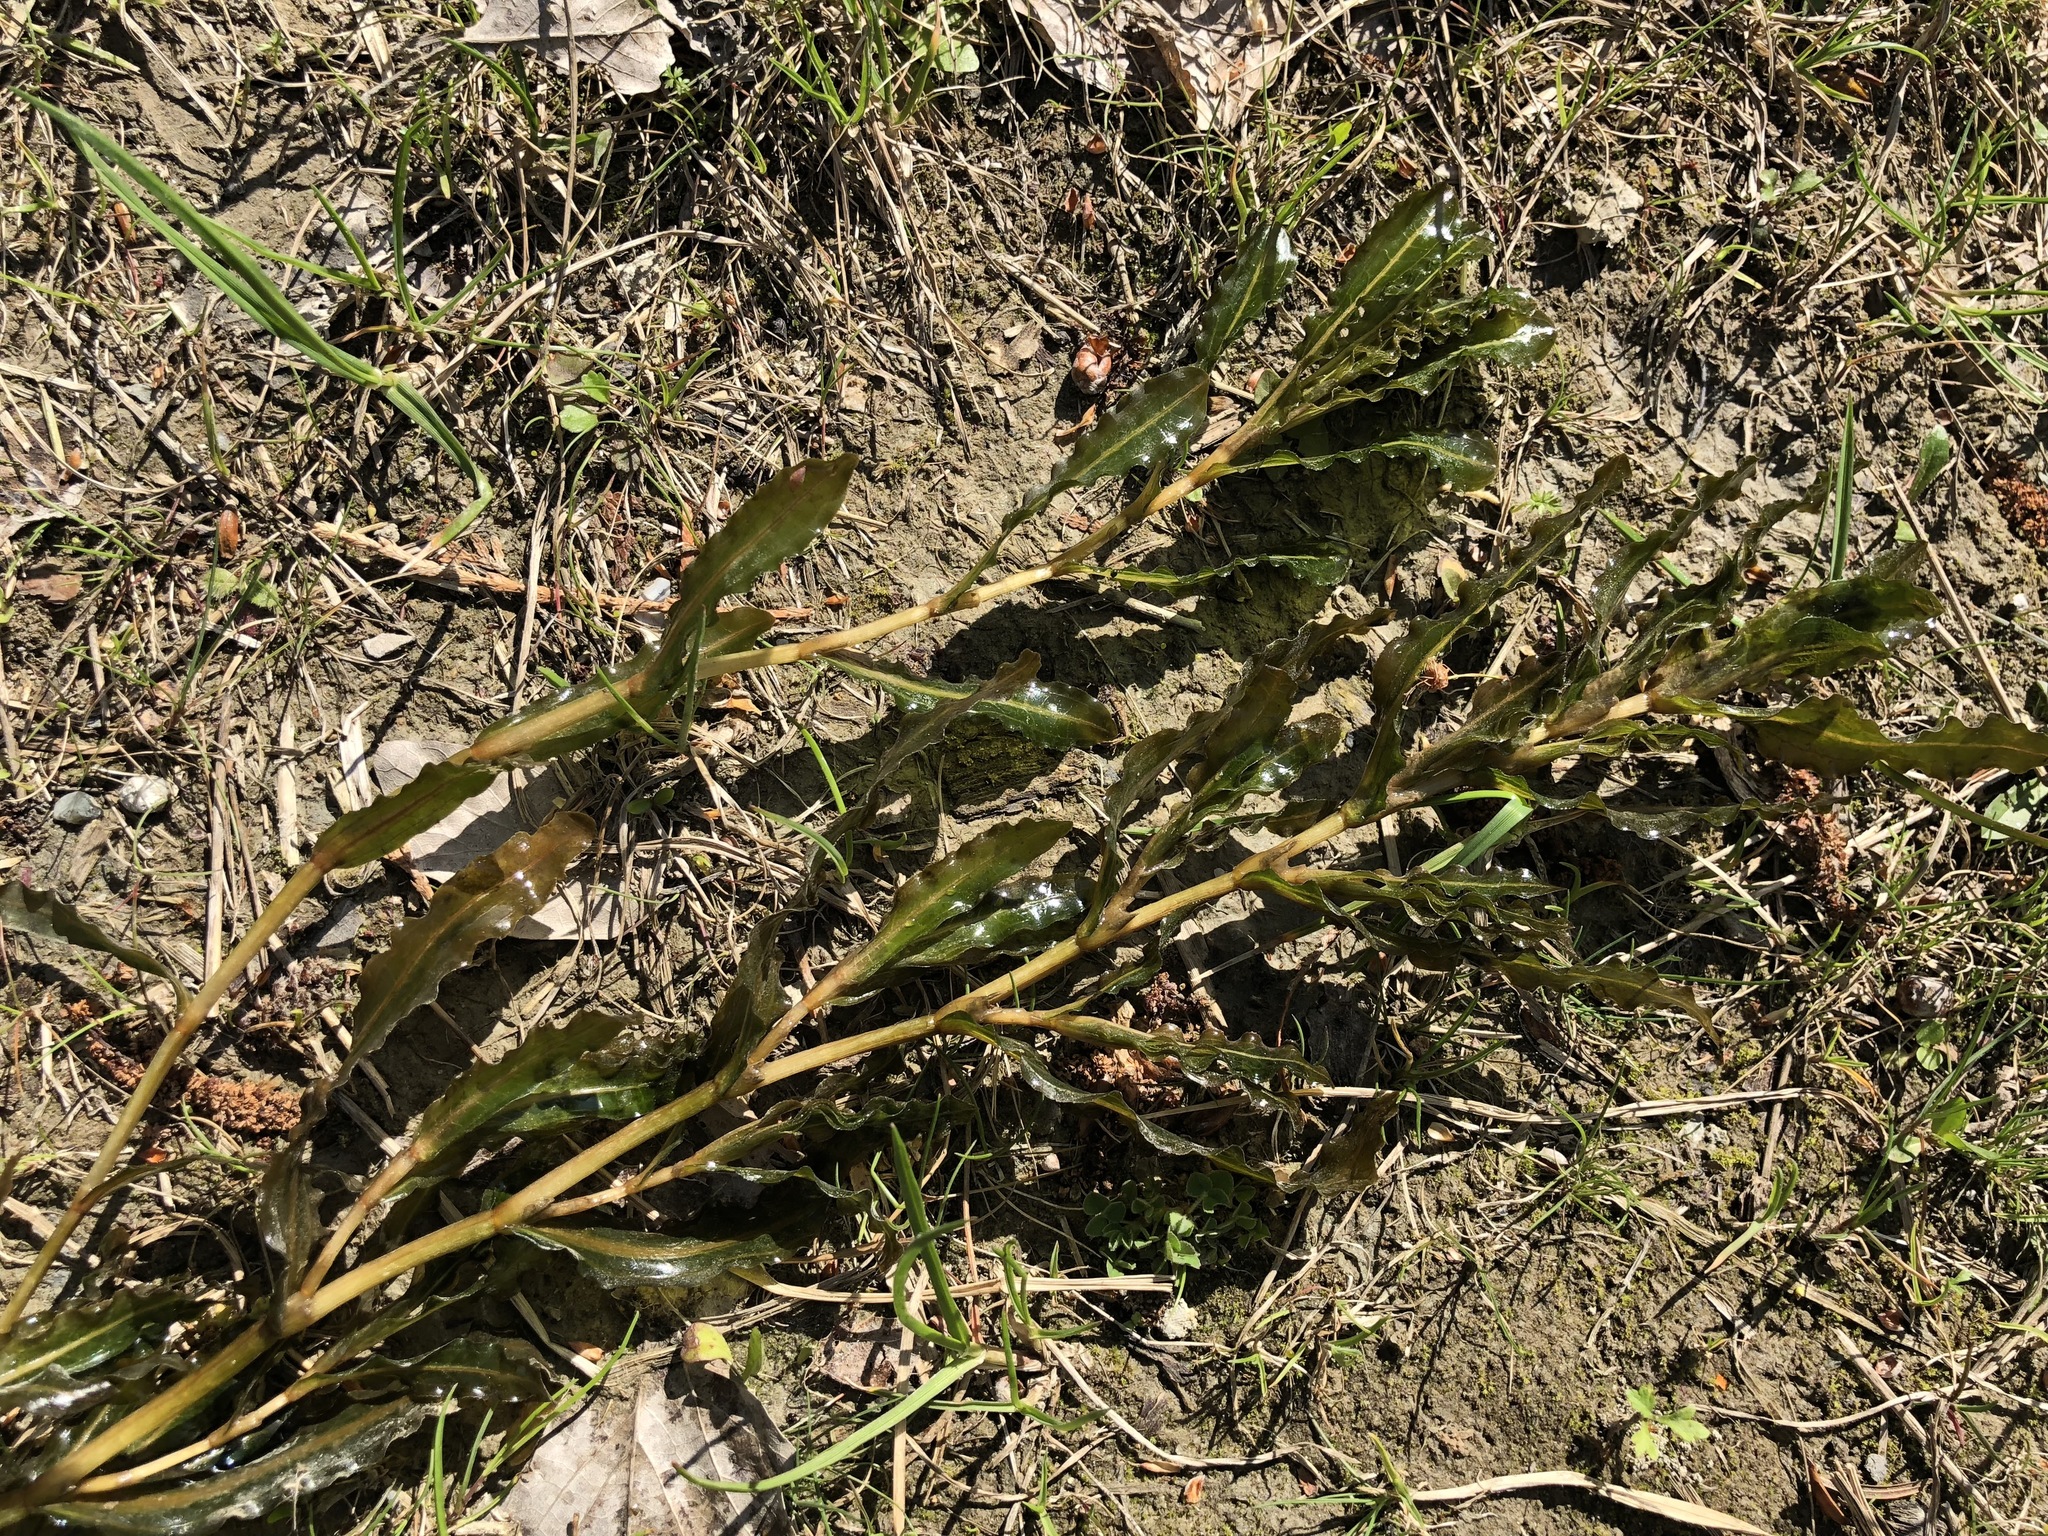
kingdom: Plantae
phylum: Tracheophyta
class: Liliopsida
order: Alismatales
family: Potamogetonaceae
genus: Potamogeton
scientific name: Potamogeton crispus
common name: Curled pondweed
